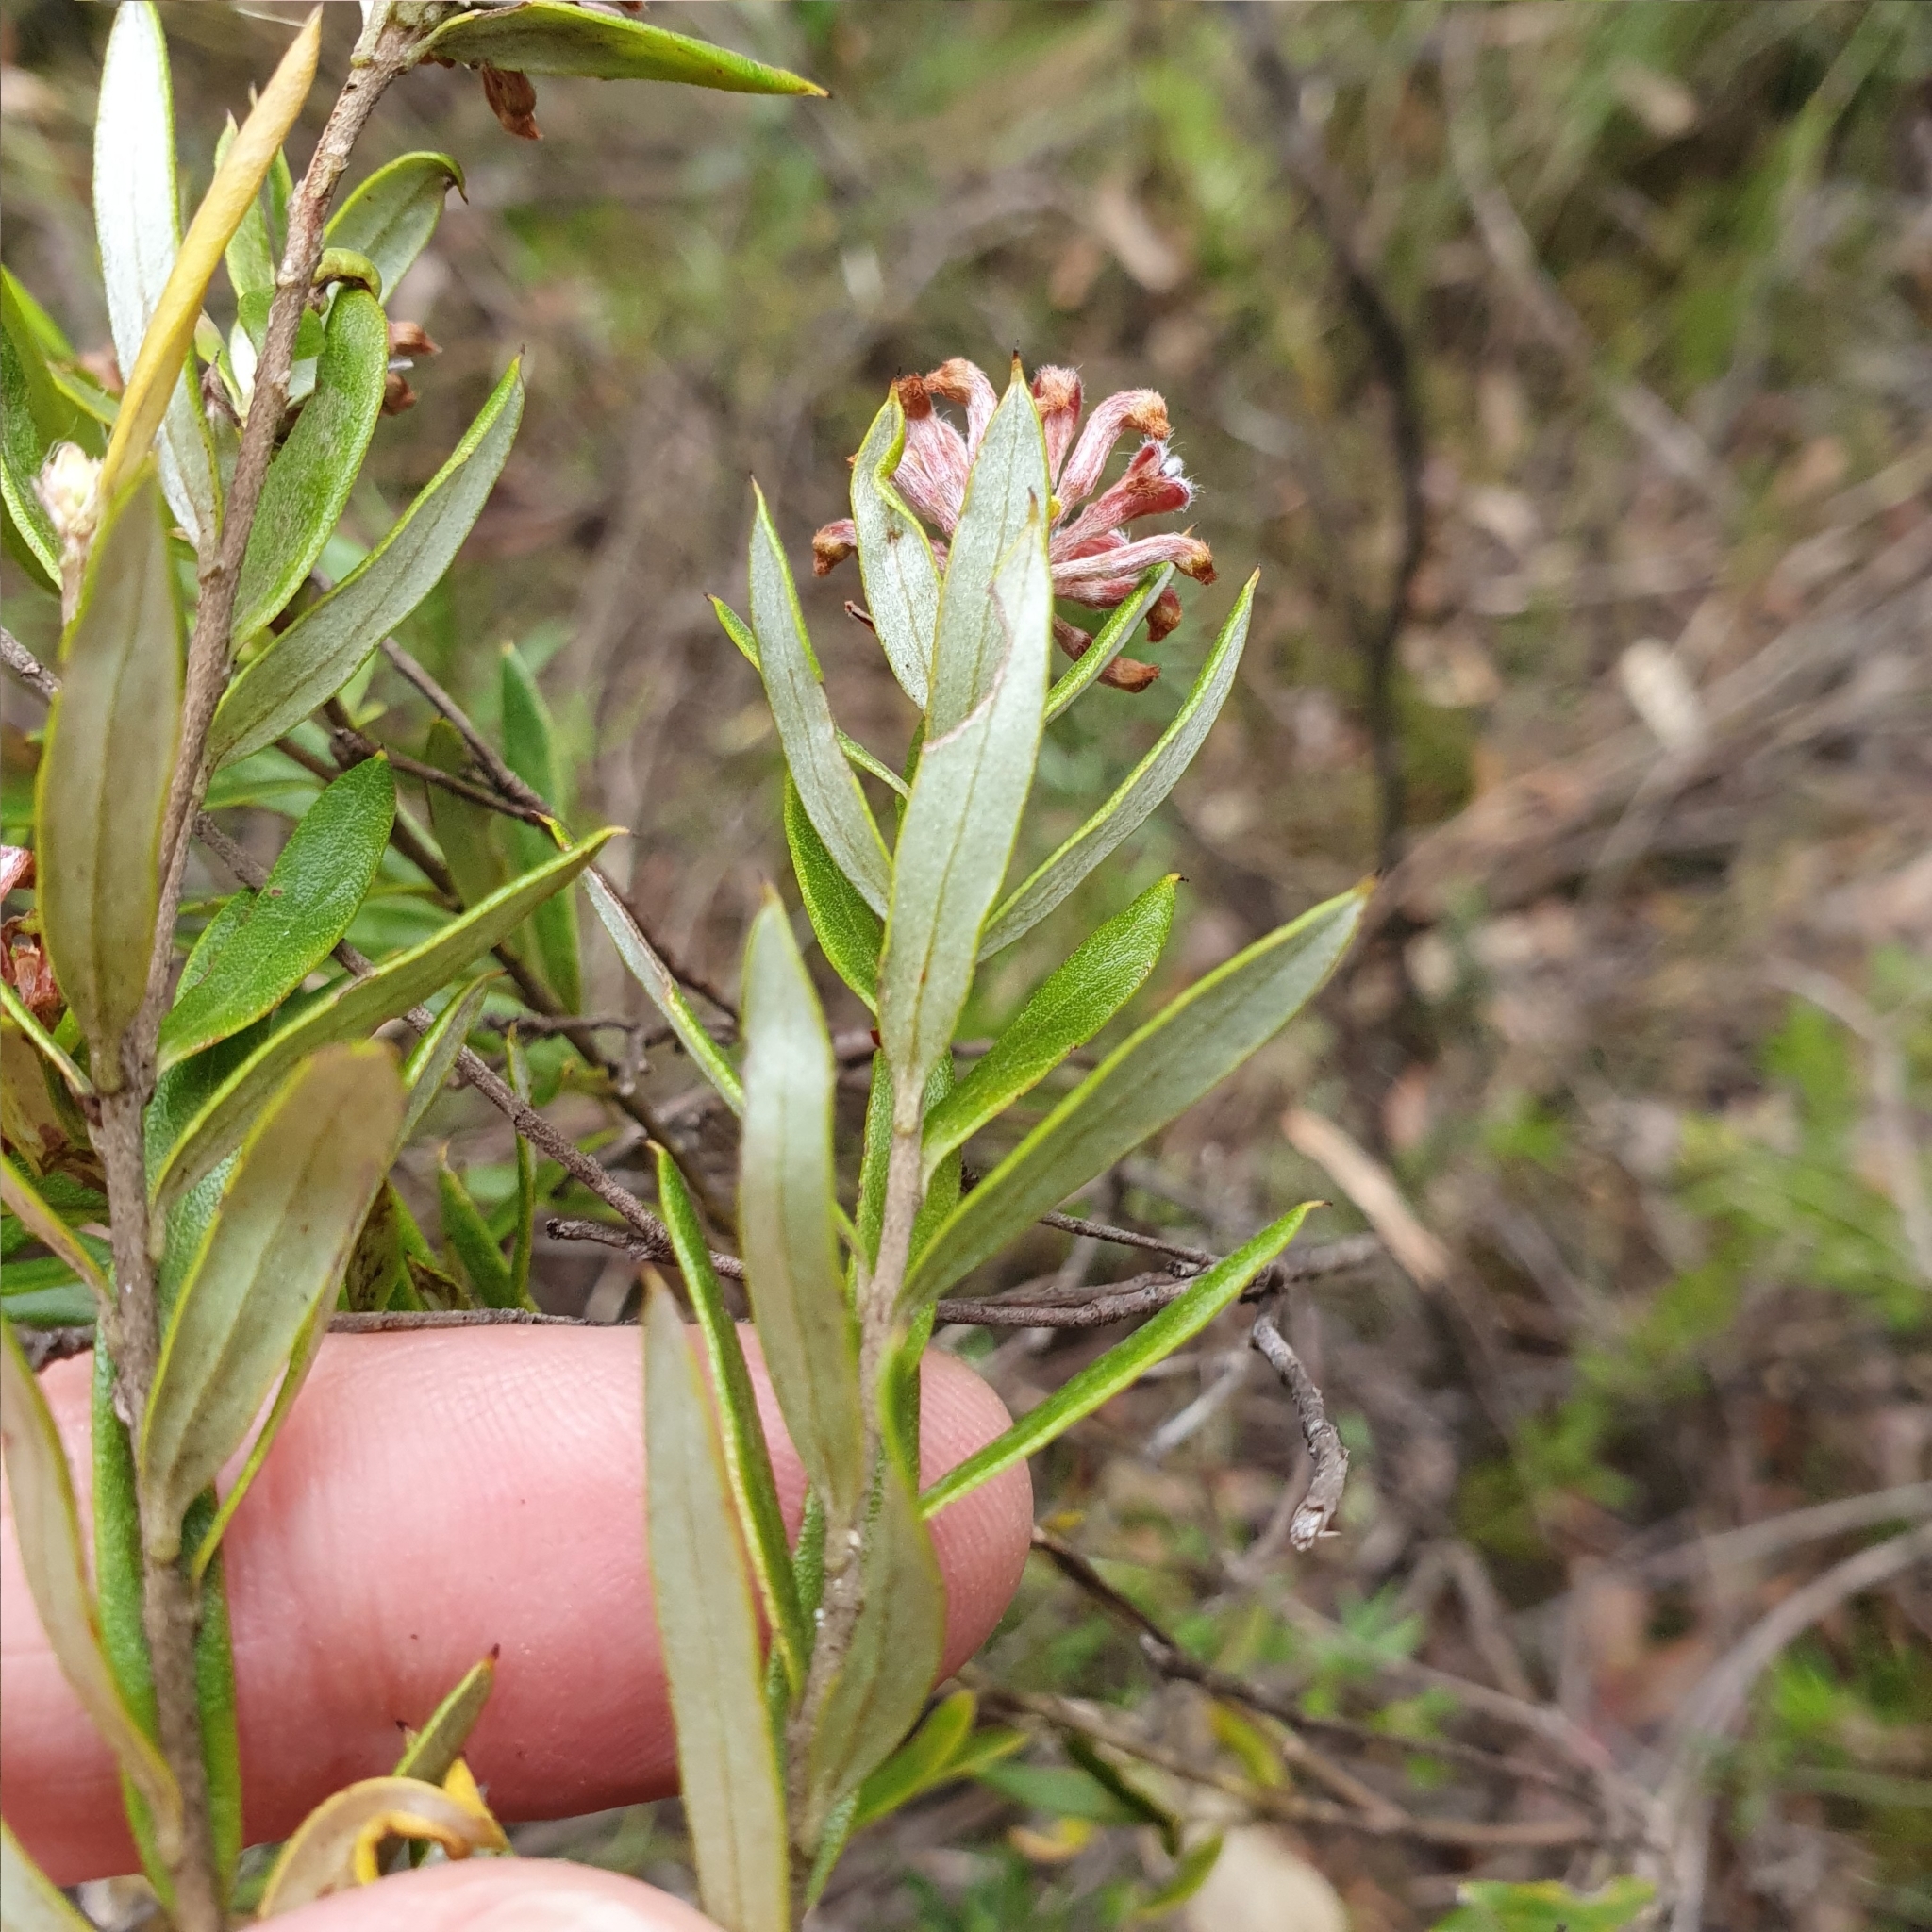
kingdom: Plantae
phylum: Tracheophyta
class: Magnoliopsida
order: Proteales
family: Proteaceae
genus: Grevillea
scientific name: Grevillea sphacelata
